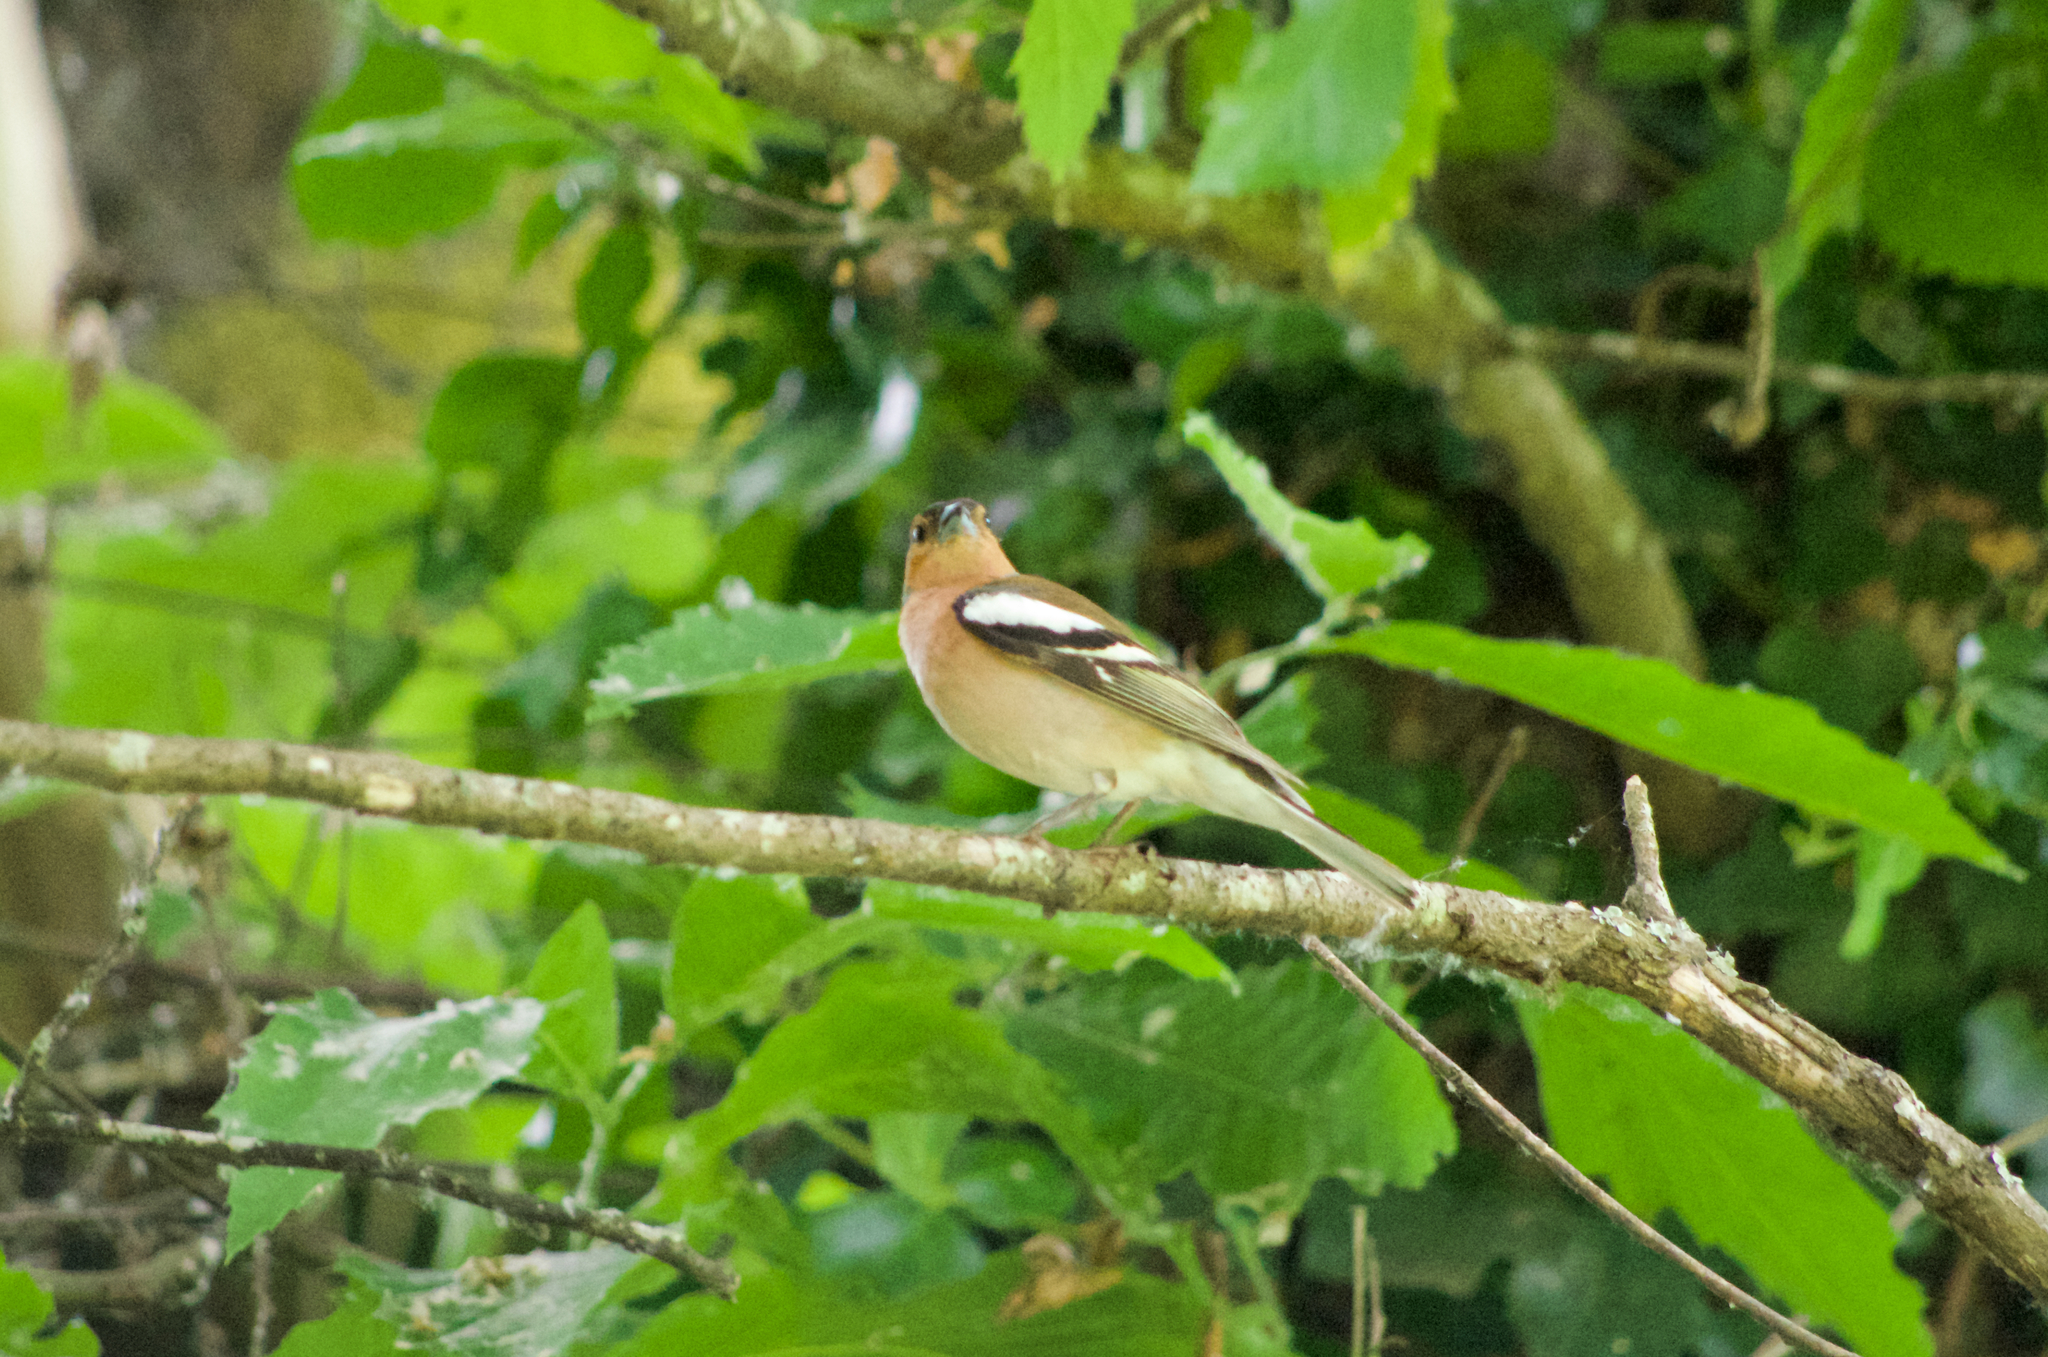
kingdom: Animalia
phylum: Chordata
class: Aves
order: Passeriformes
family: Fringillidae
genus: Fringilla
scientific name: Fringilla coelebs
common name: Common chaffinch
